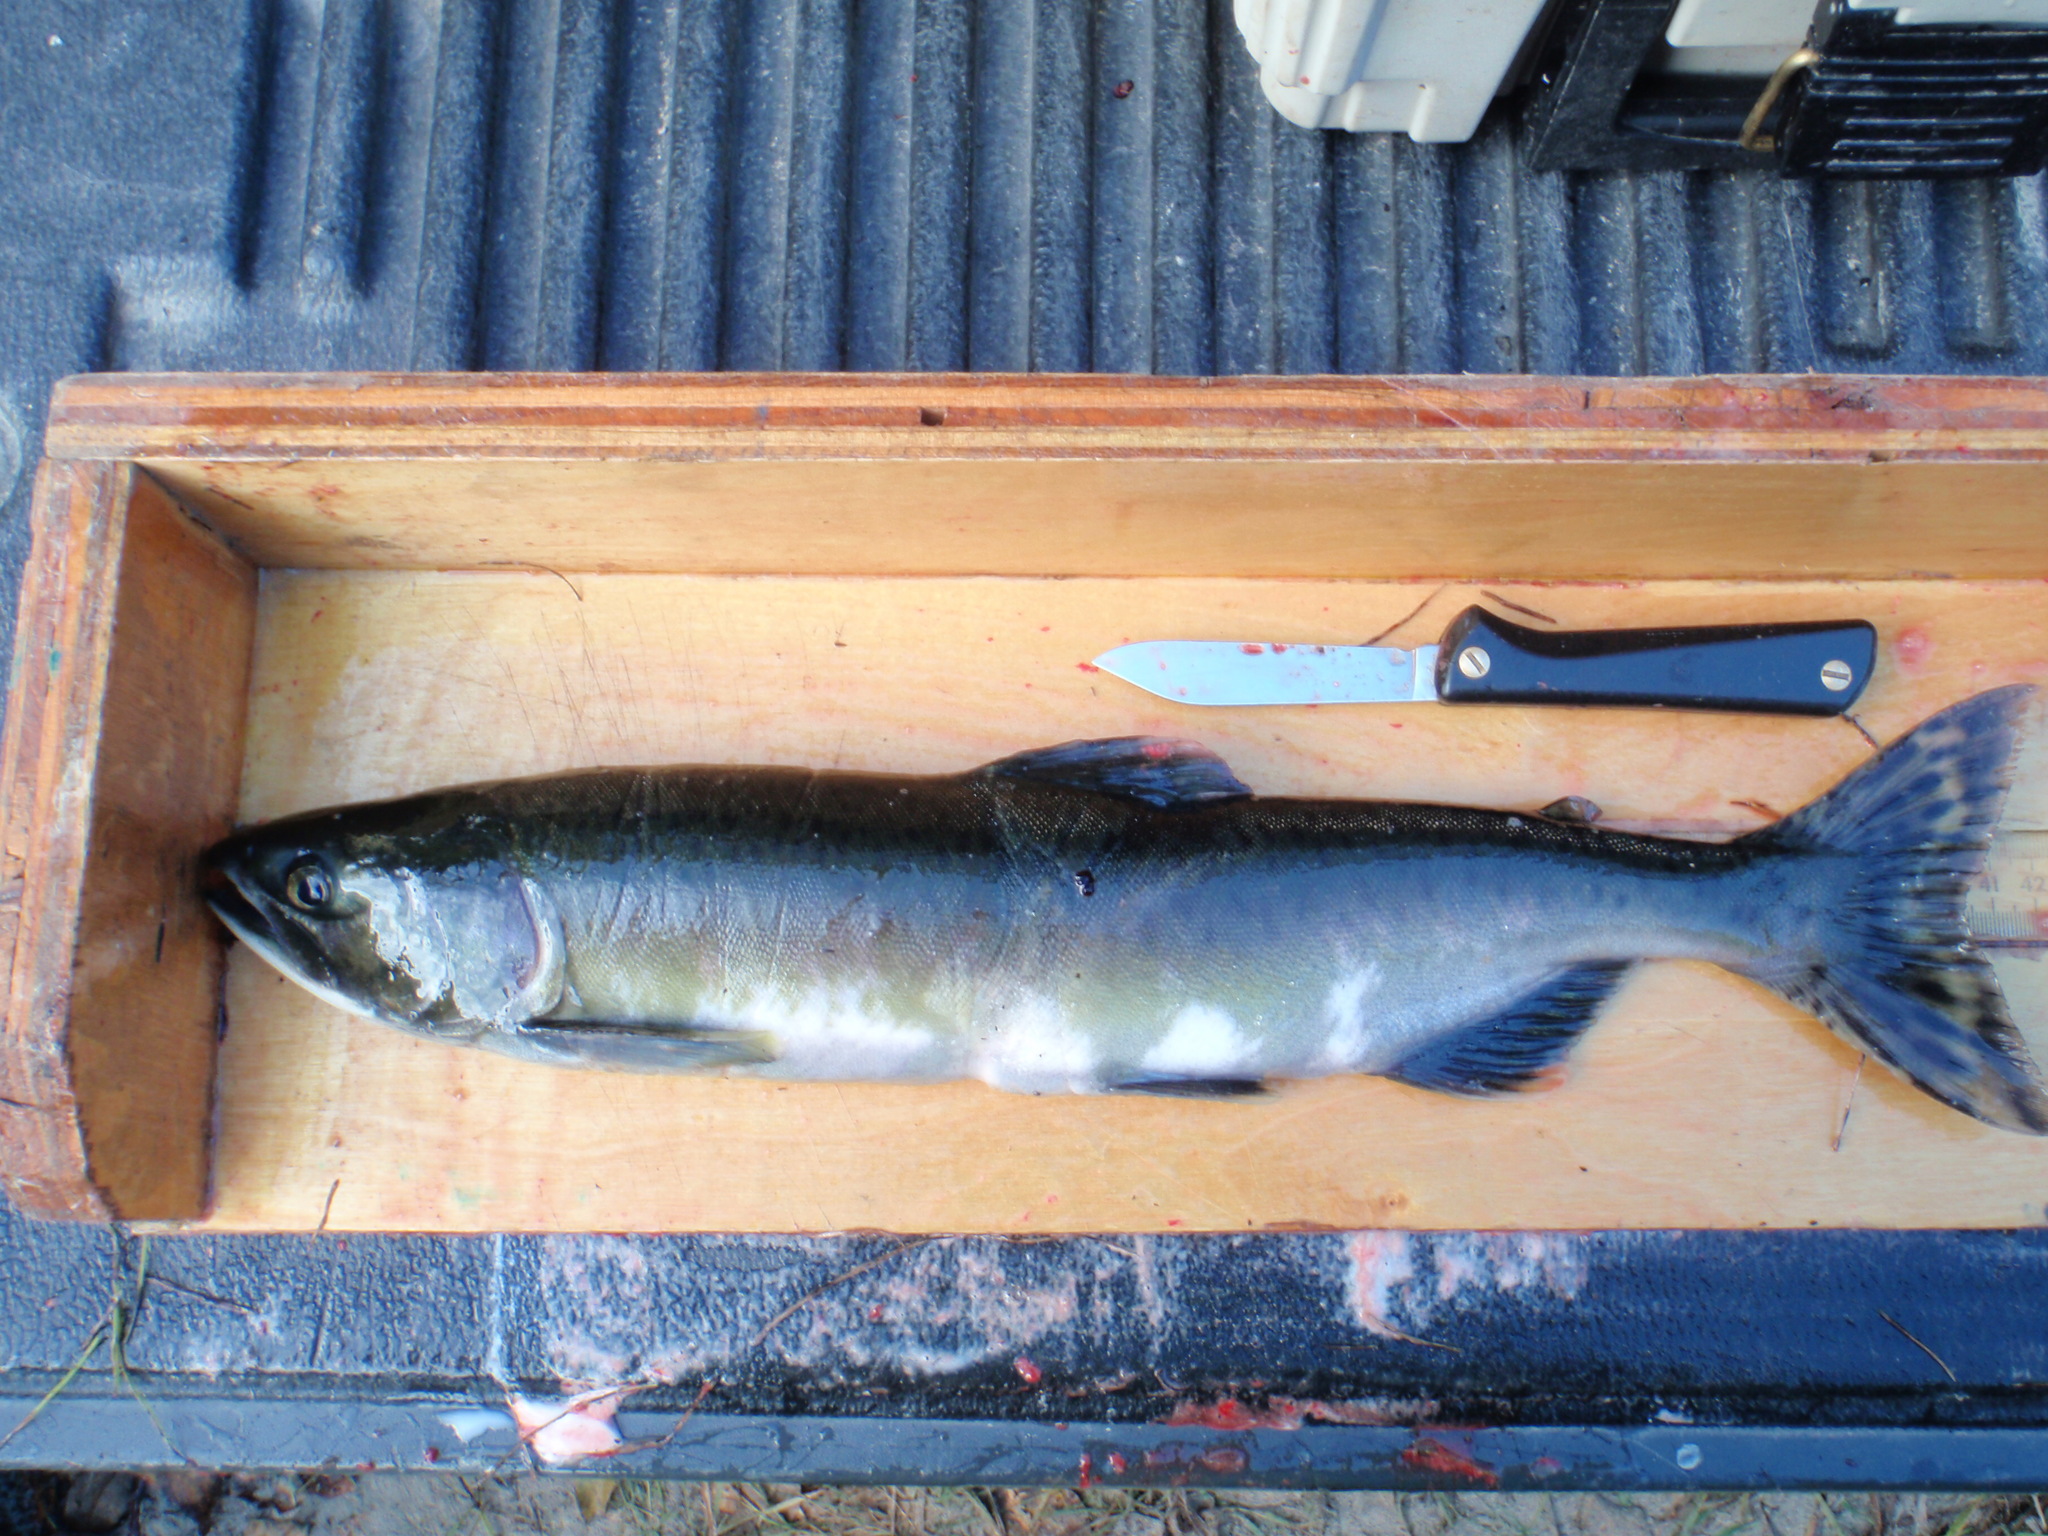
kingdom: Animalia
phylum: Chordata
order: Salmoniformes
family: Salmonidae
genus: Oncorhynchus
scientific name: Oncorhynchus gorbuscha
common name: Humpback salmon
